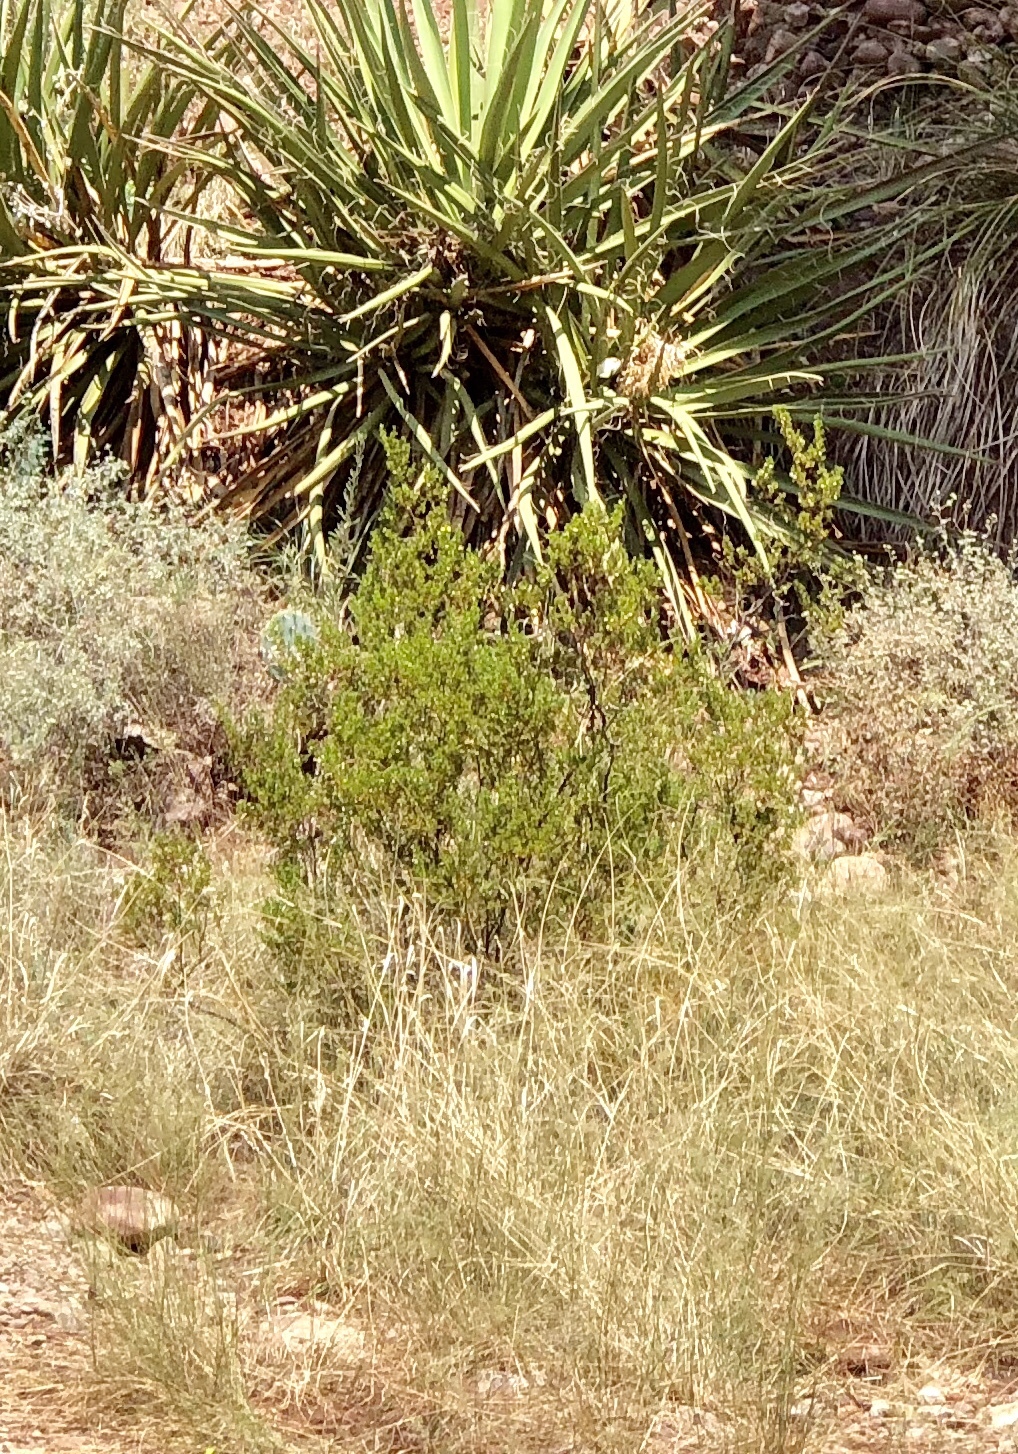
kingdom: Plantae
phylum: Tracheophyta
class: Magnoliopsida
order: Zygophyllales
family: Zygophyllaceae
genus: Larrea
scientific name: Larrea tridentata
